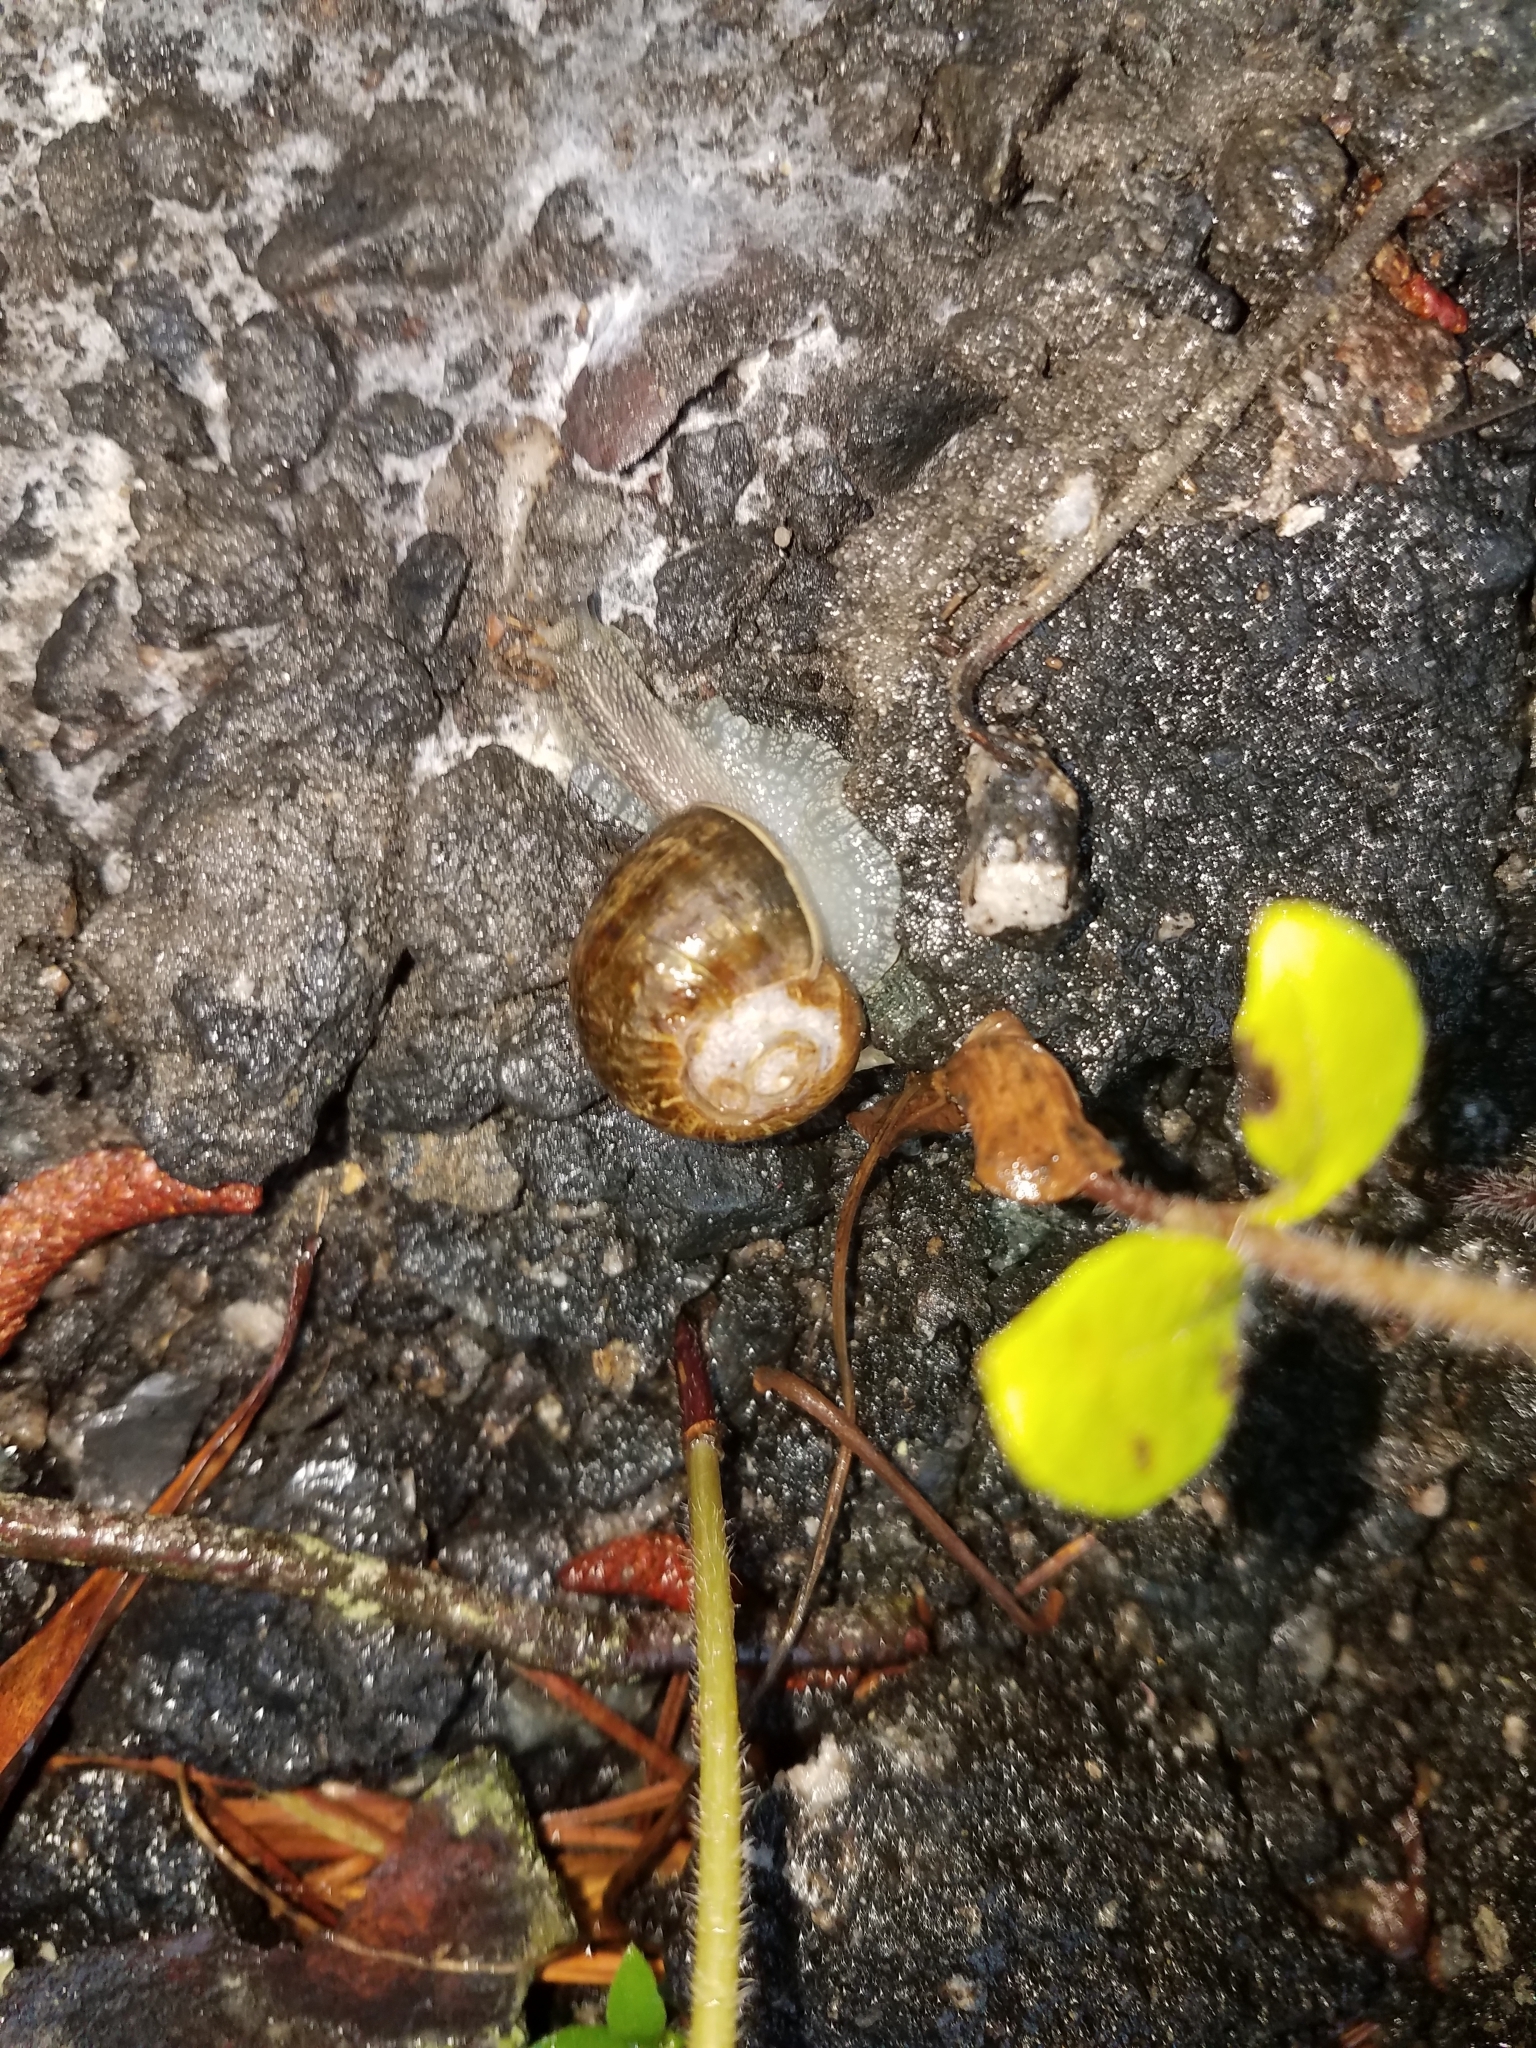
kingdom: Animalia
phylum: Mollusca
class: Gastropoda
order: Stylommatophora
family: Helicidae
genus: Cornu
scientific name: Cornu aspersum
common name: Brown garden snail
